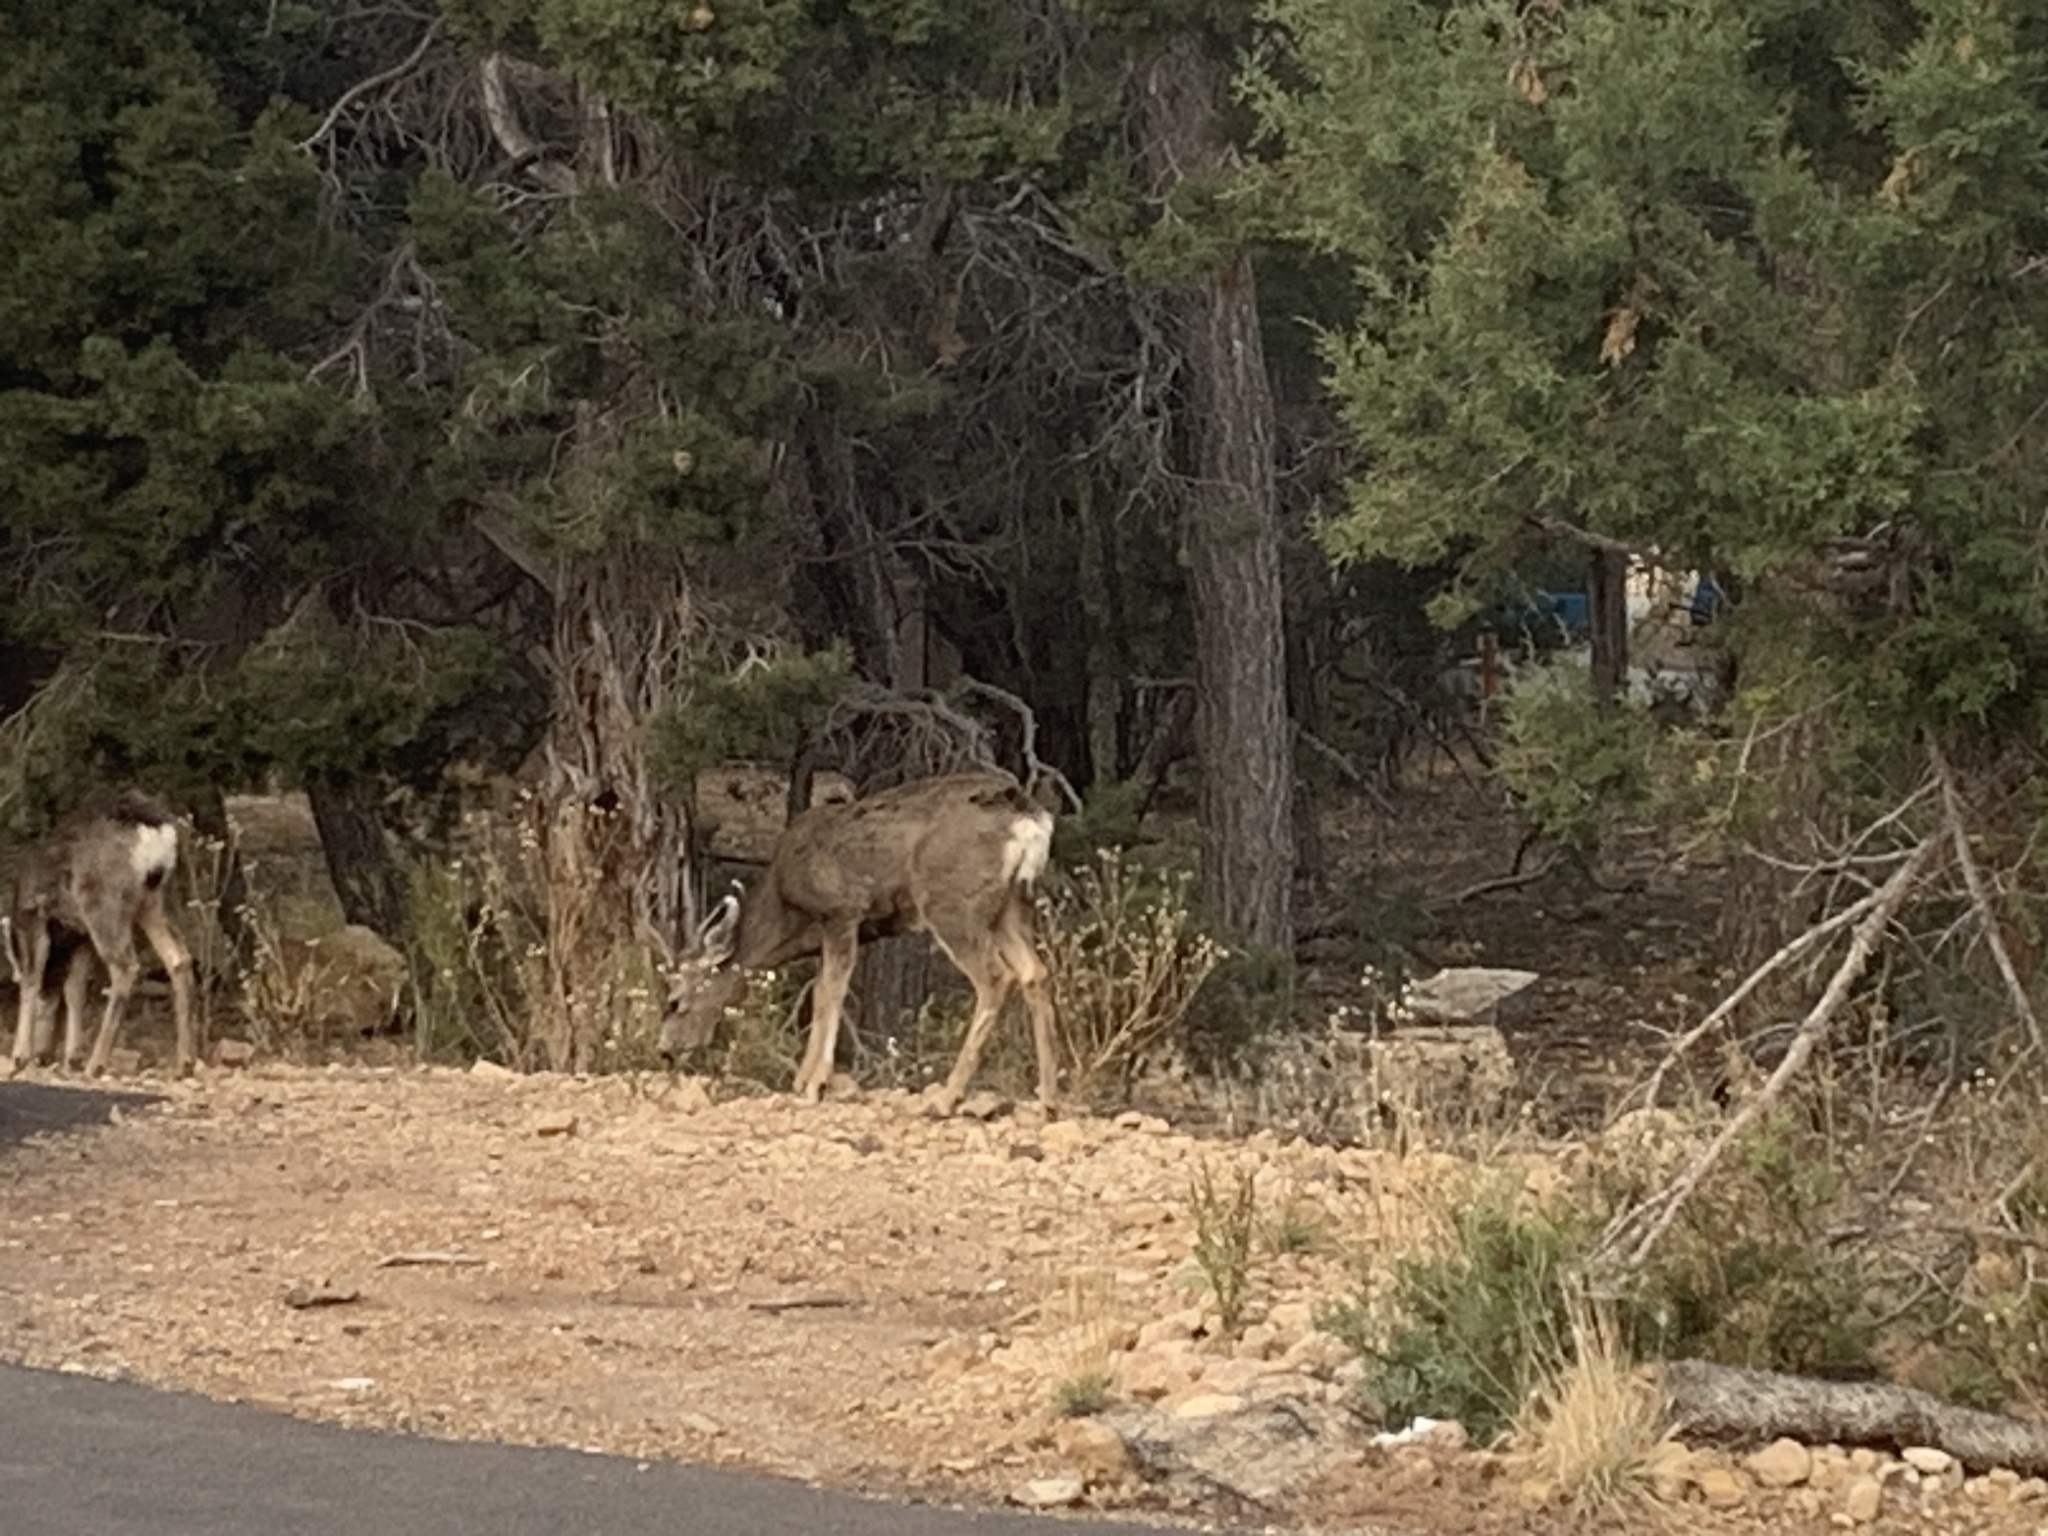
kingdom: Animalia
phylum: Chordata
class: Mammalia
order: Artiodactyla
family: Cervidae
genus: Odocoileus
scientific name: Odocoileus hemionus
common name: Mule deer
